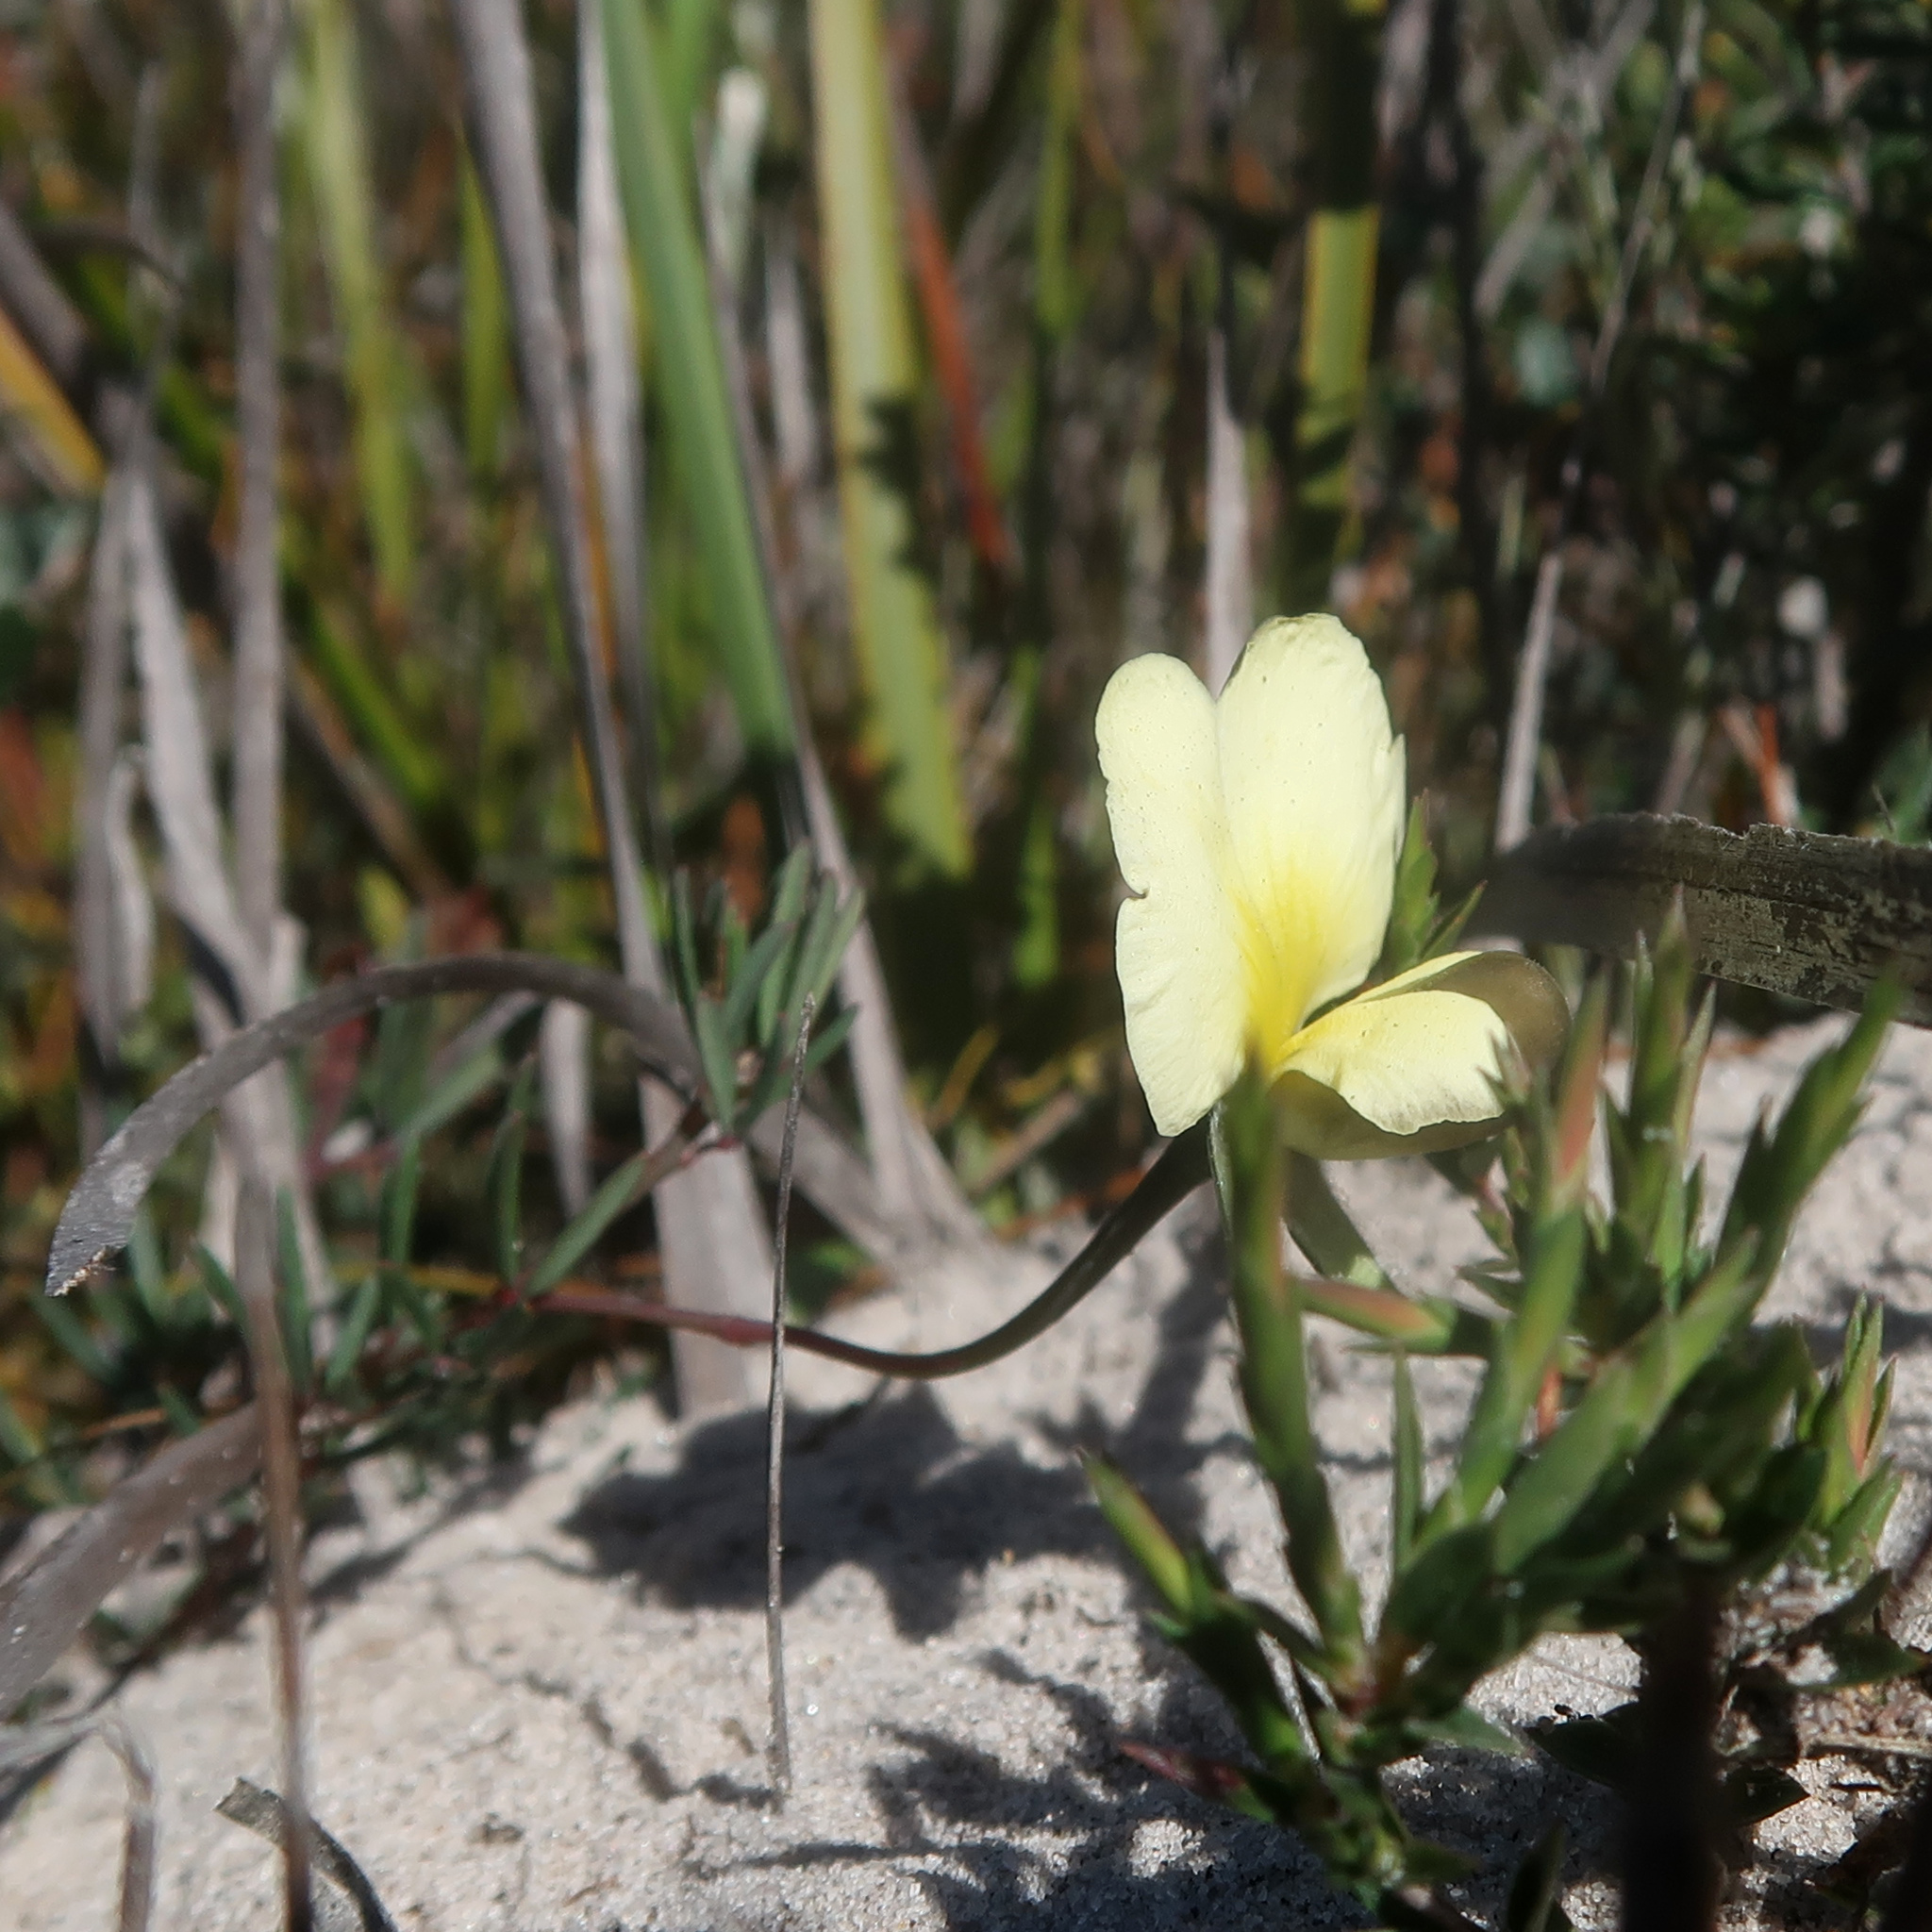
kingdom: Plantae
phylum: Tracheophyta
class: Magnoliopsida
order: Fabales
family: Fabaceae
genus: Gompholobium
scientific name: Gompholobium huegelii
